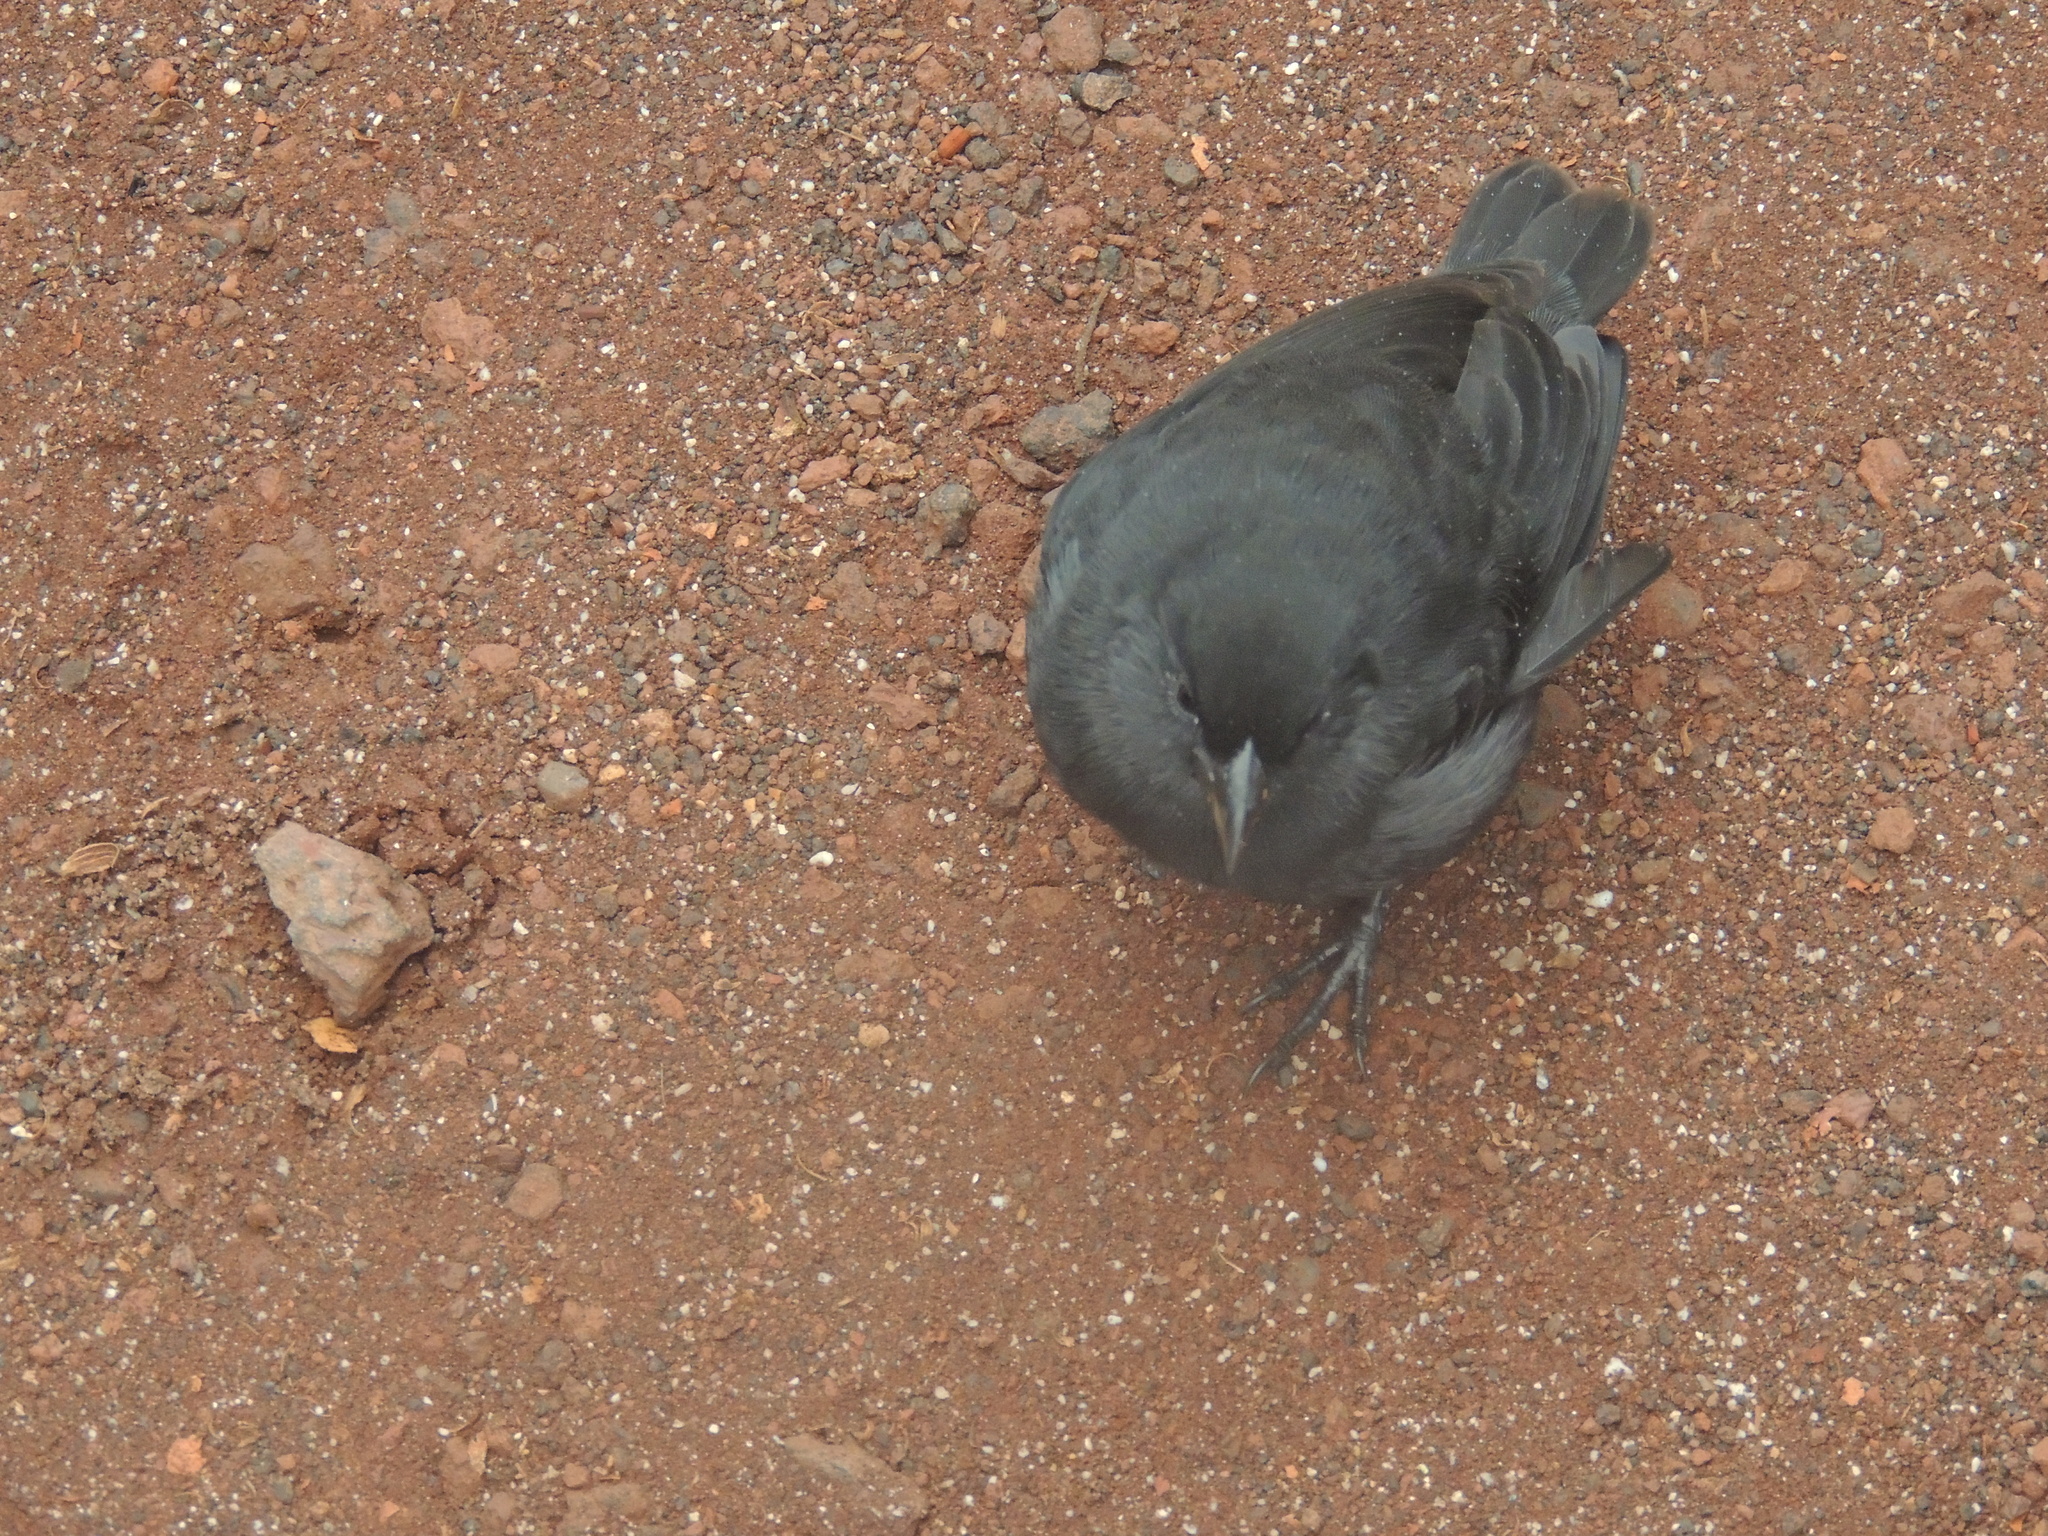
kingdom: Animalia
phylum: Chordata
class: Aves
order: Passeriformes
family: Thraupidae
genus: Geospiza
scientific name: Geospiza fuliginosa
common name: Small ground finch
